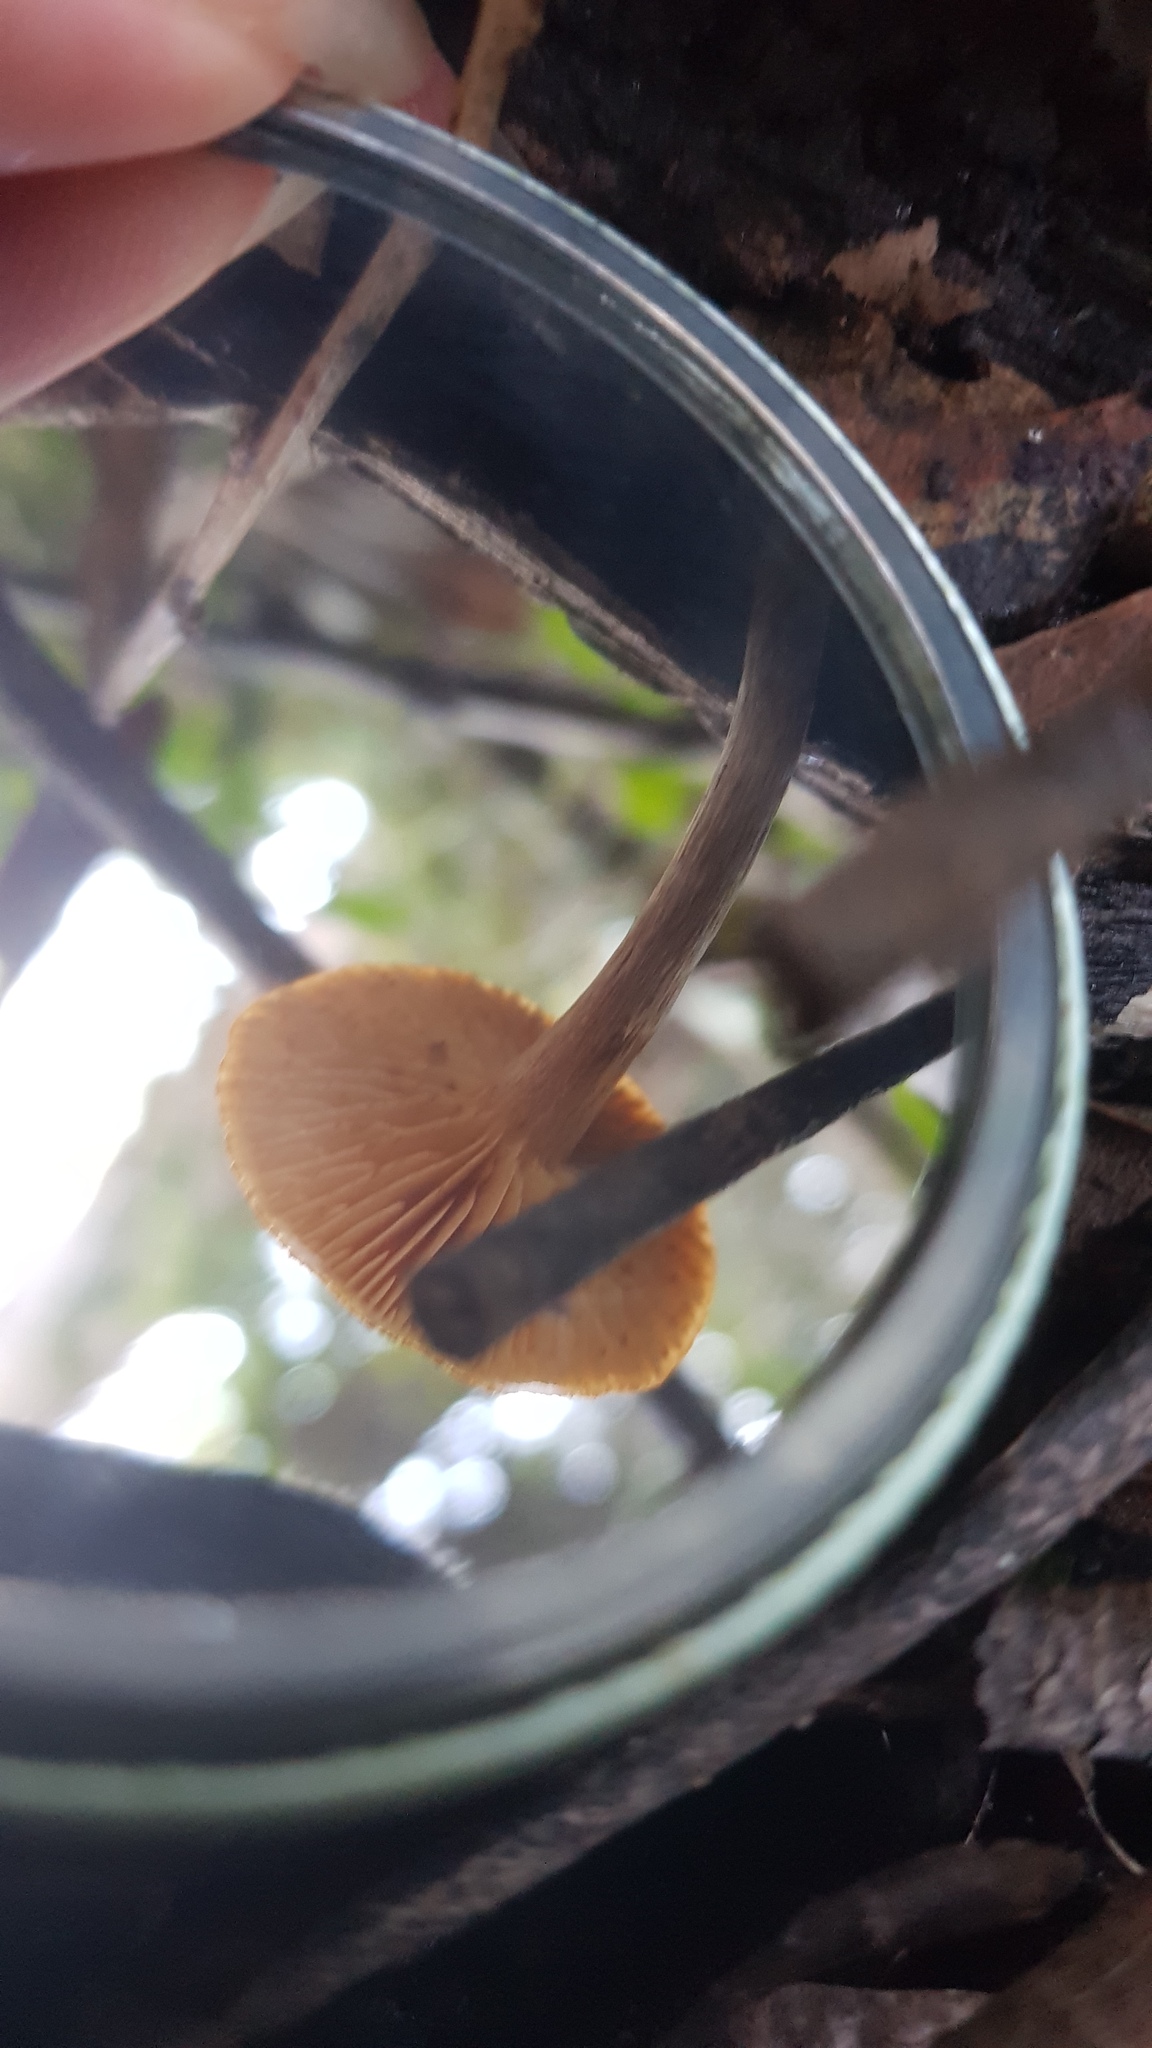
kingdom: Fungi
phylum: Basidiomycota
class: Agaricomycetes
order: Agaricales
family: Hymenogastraceae
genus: Gymnopilus
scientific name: Gymnopilus allantopus
